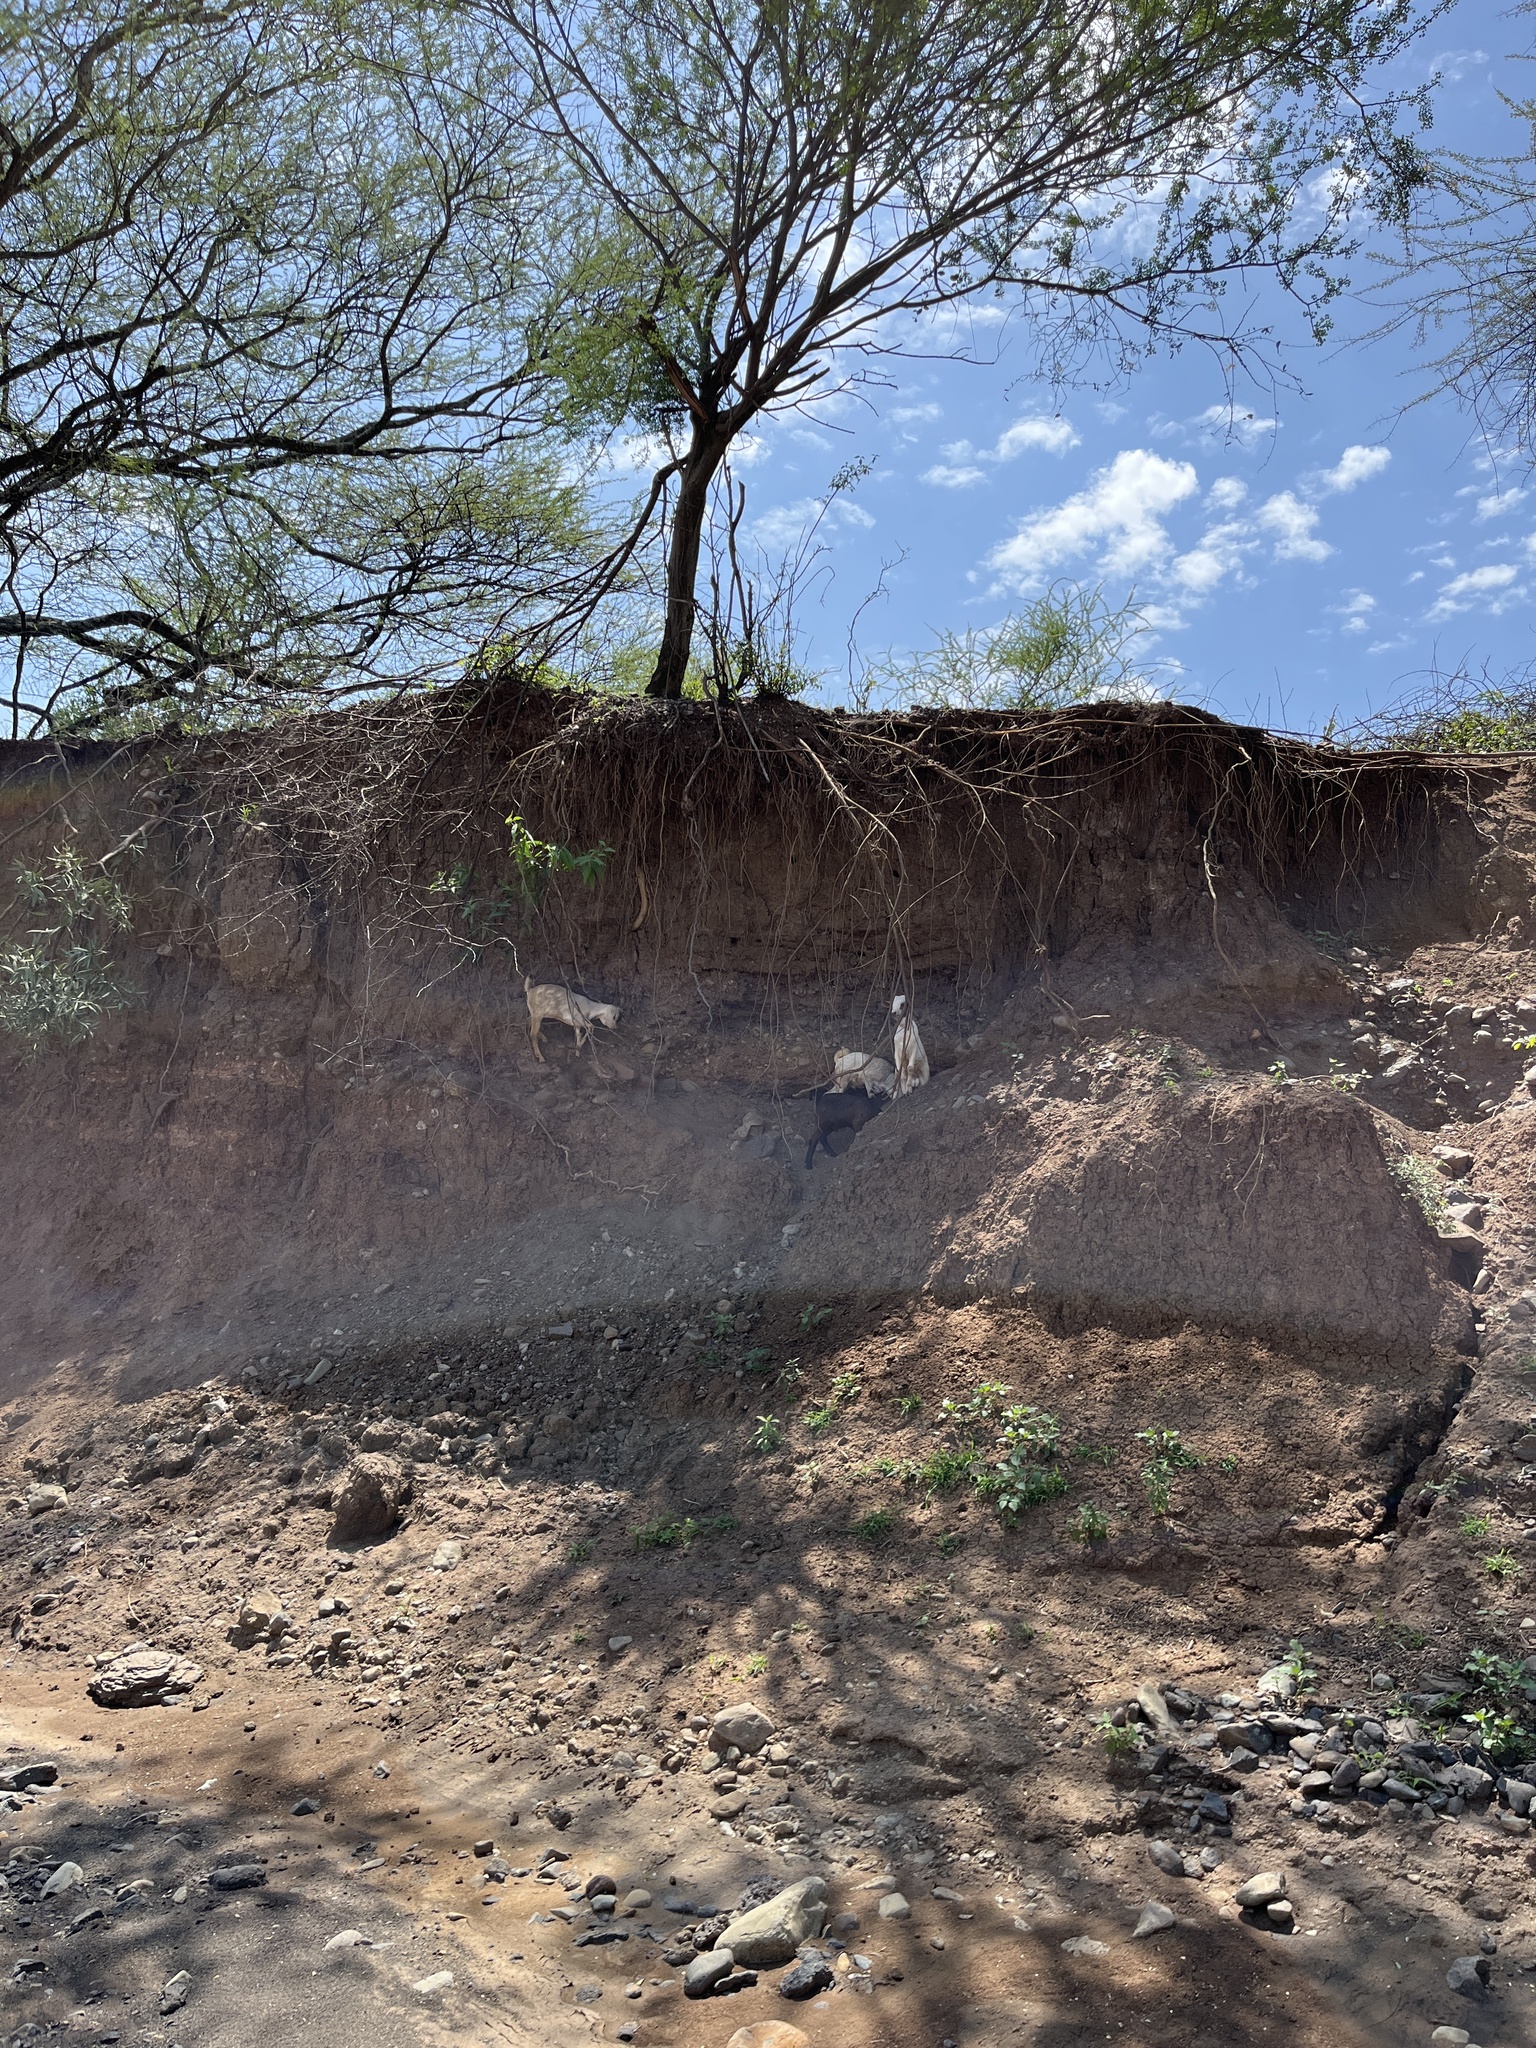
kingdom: Animalia
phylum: Chordata
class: Mammalia
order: Artiodactyla
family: Bovidae
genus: Capra
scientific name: Capra hircus
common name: Domestic goat
